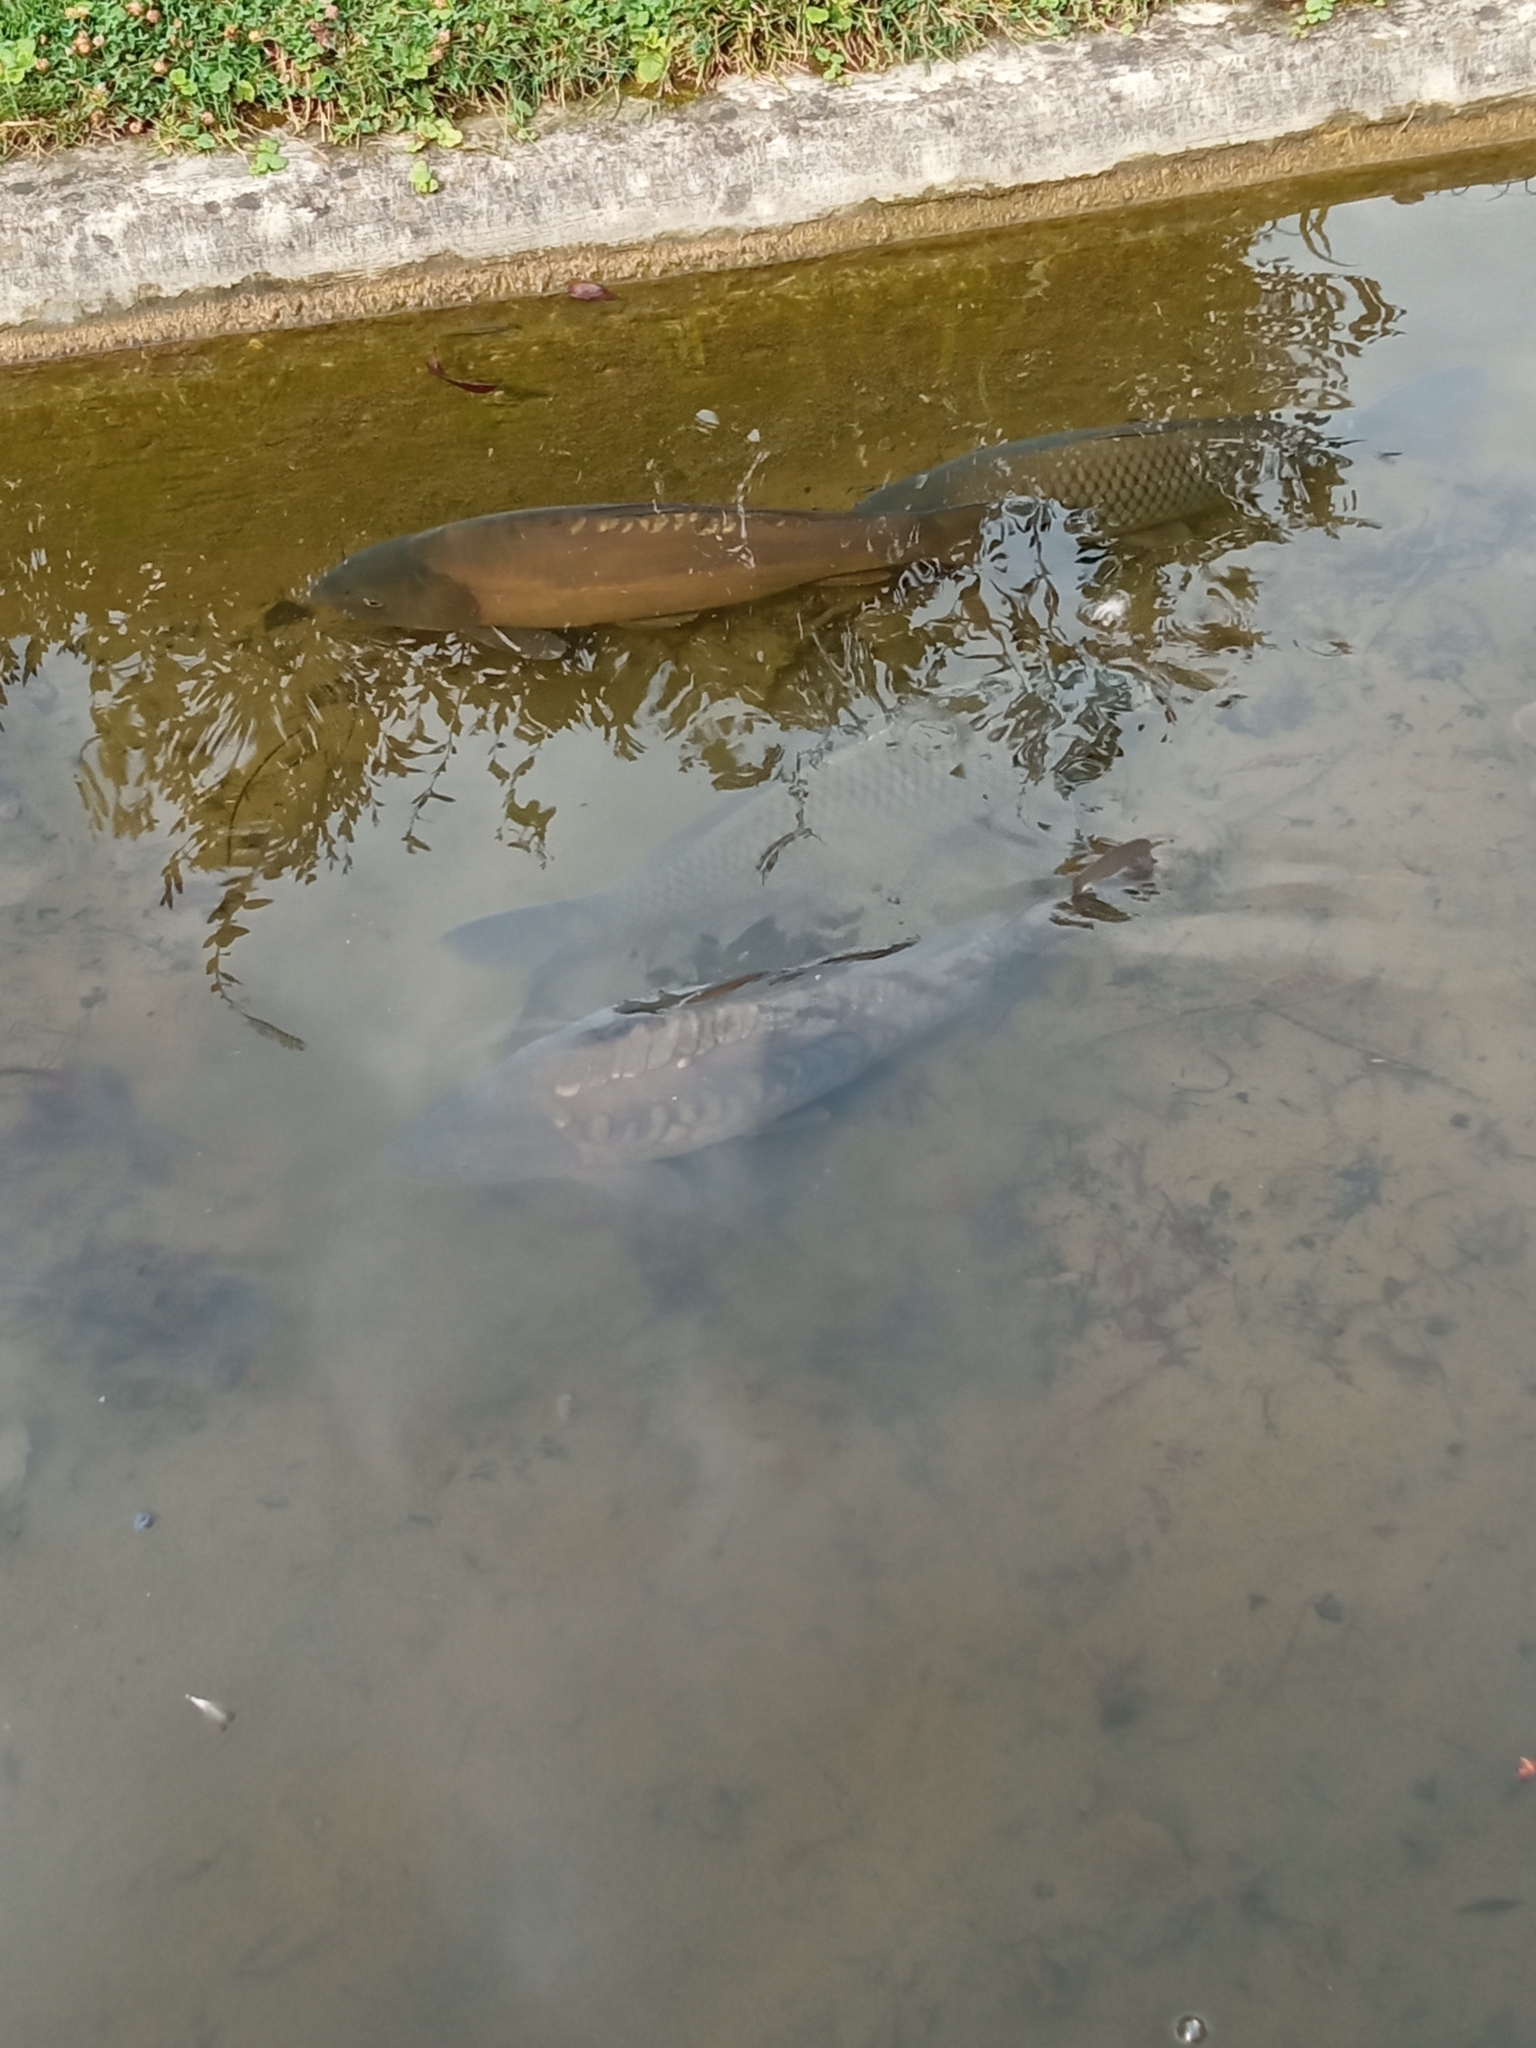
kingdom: Animalia
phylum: Chordata
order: Cypriniformes
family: Cyprinidae
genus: Cyprinus
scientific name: Cyprinus carpio
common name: Common carp
